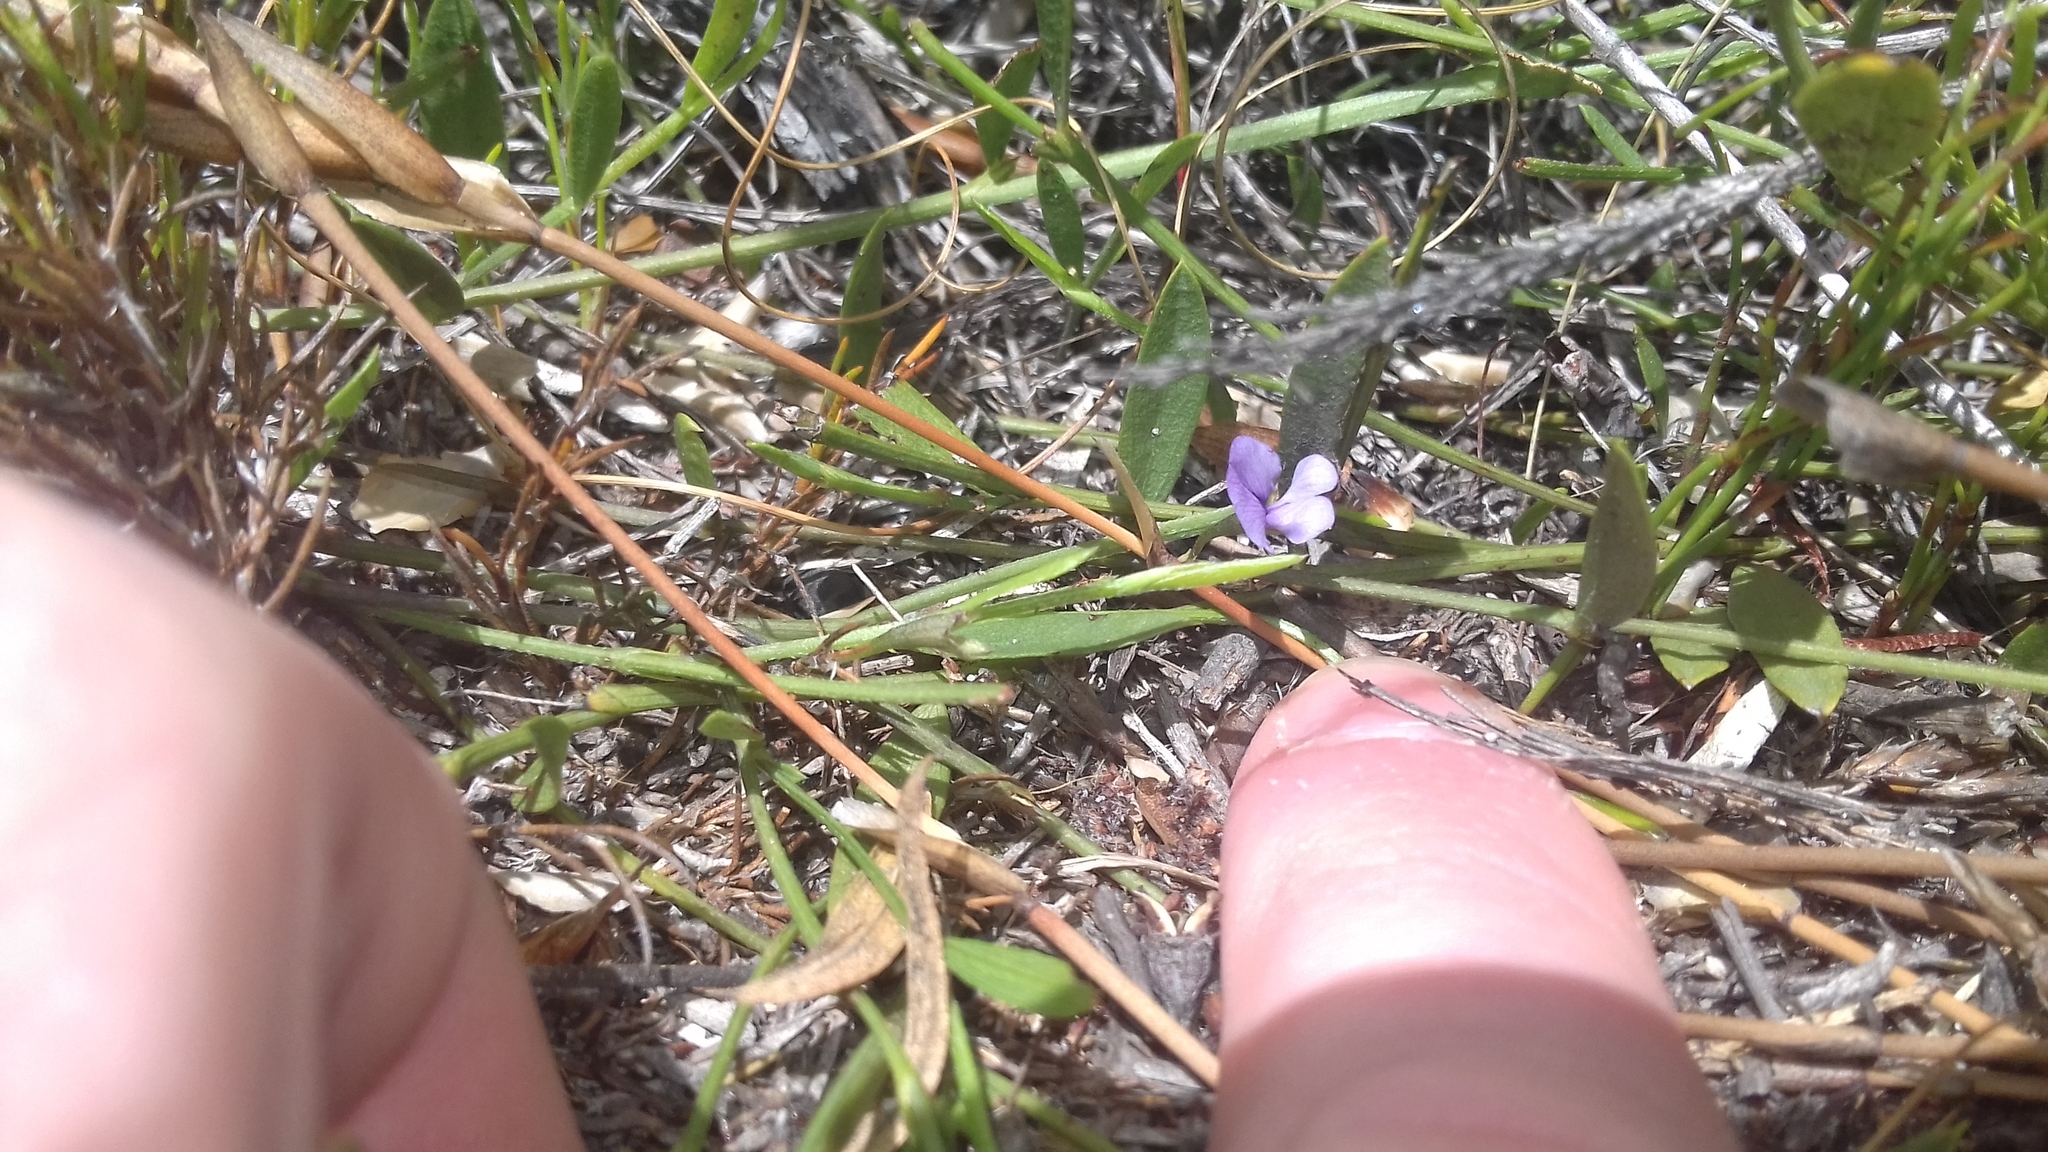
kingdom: Plantae
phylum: Tracheophyta
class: Magnoliopsida
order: Fabales
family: Fabaceae
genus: Psoralea
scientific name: Psoralea laxa
